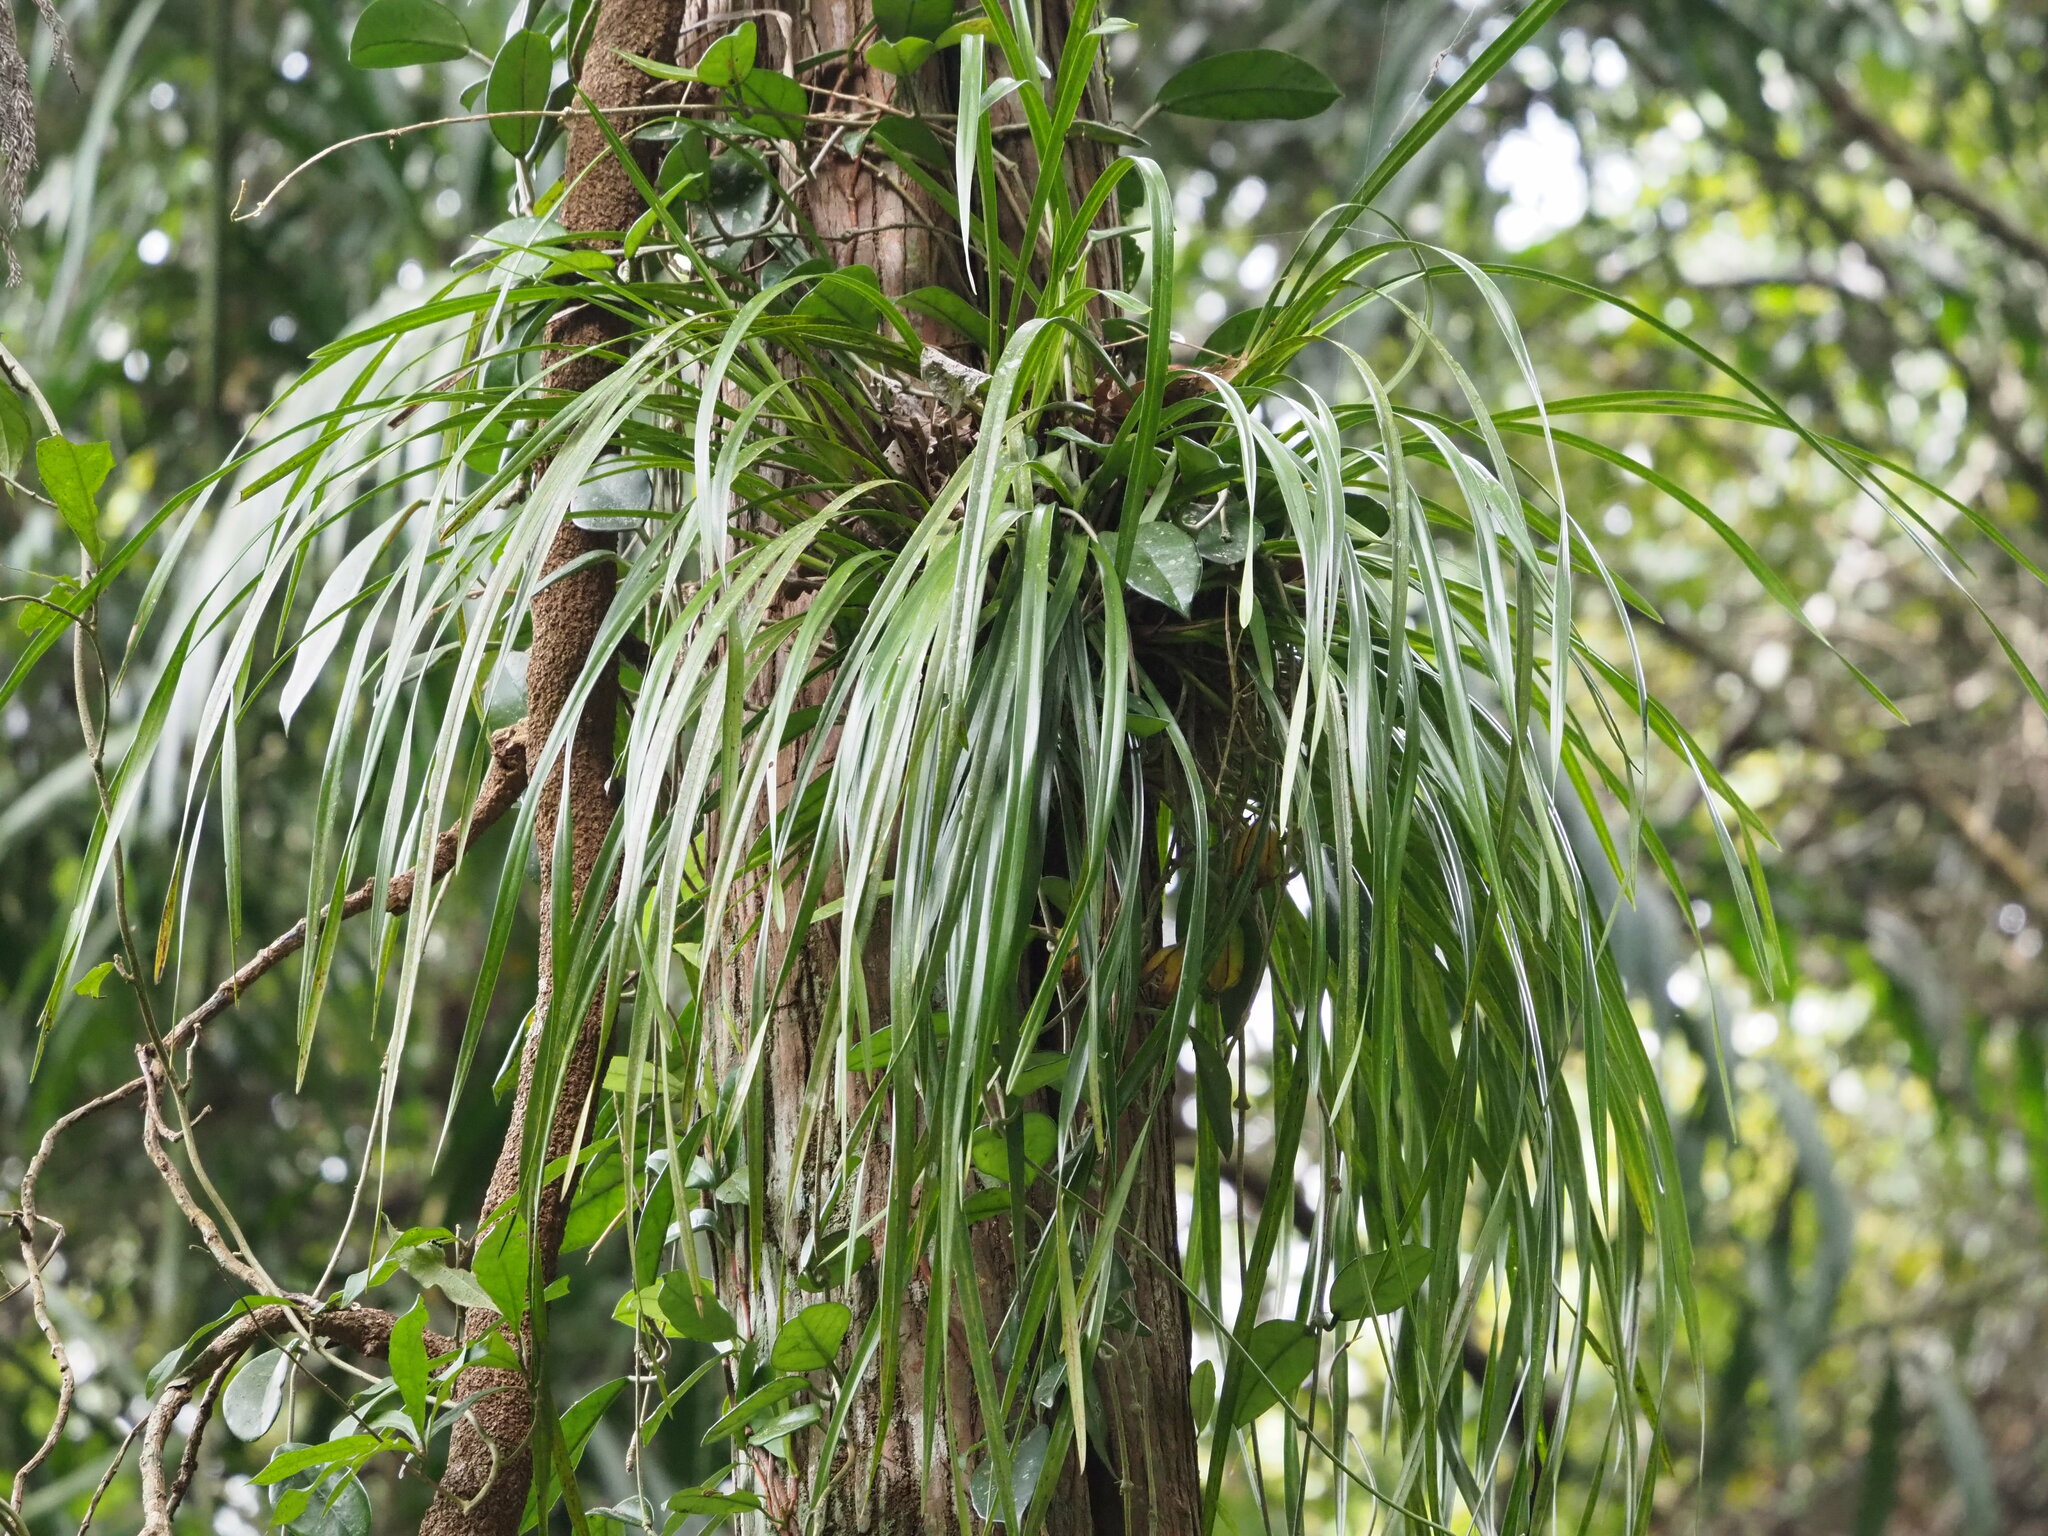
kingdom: Plantae
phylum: Tracheophyta
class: Liliopsida
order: Asparagales
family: Orchidaceae
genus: Cymbidium
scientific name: Cymbidium dayanum
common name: Orchid
